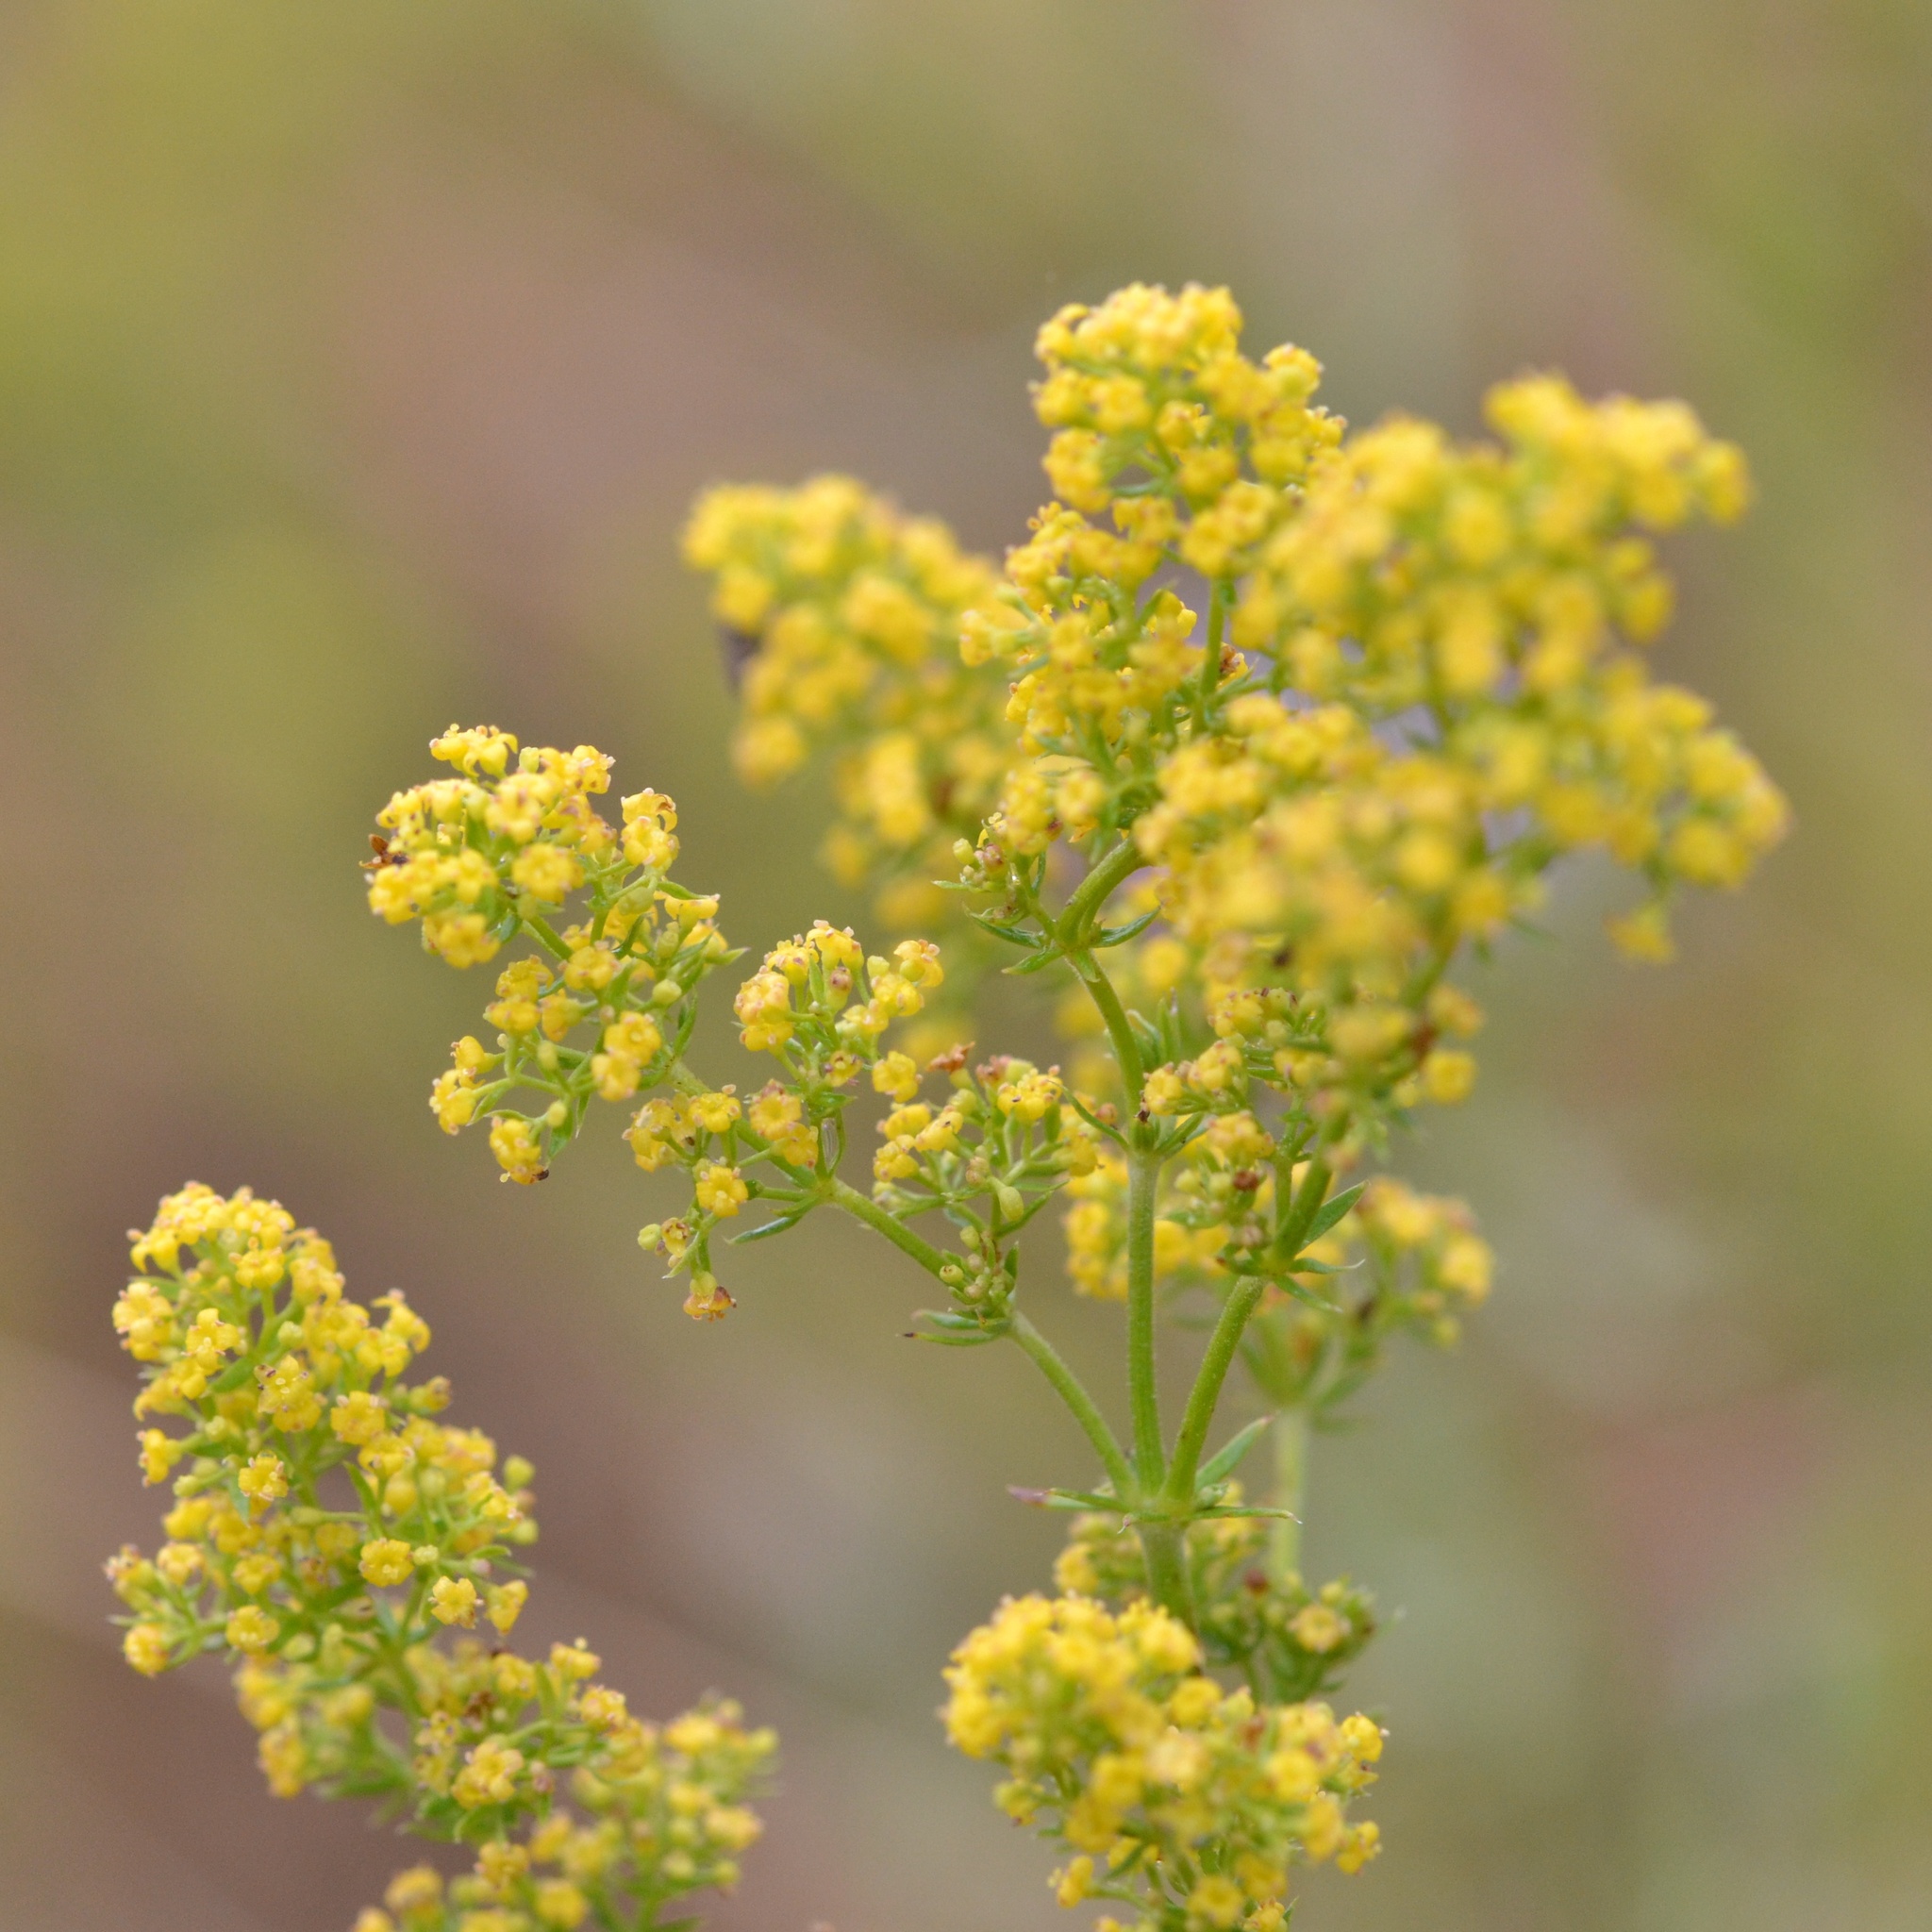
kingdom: Plantae
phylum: Tracheophyta
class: Magnoliopsida
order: Gentianales
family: Rubiaceae
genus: Galium
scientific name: Galium verum
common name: Lady's bedstraw
